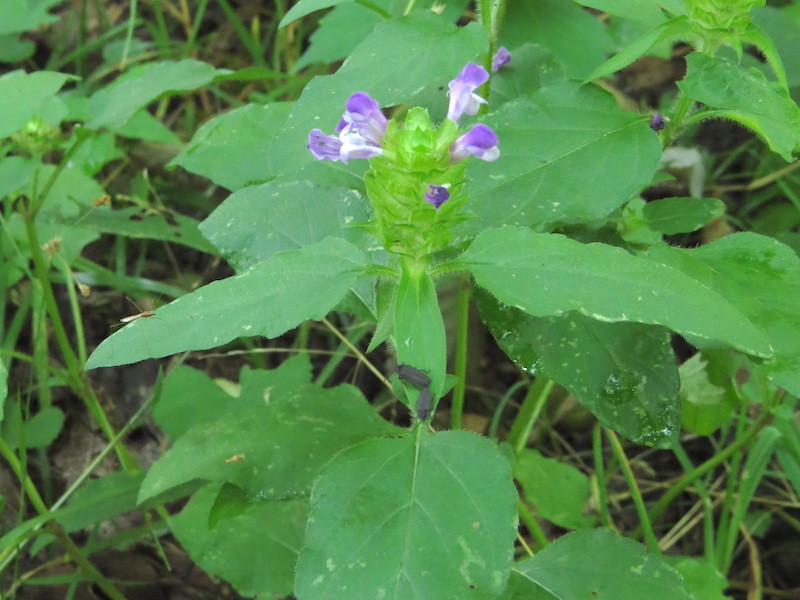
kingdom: Plantae
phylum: Tracheophyta
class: Magnoliopsida
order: Lamiales
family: Lamiaceae
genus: Prunella
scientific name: Prunella vulgaris
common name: Heal-all
